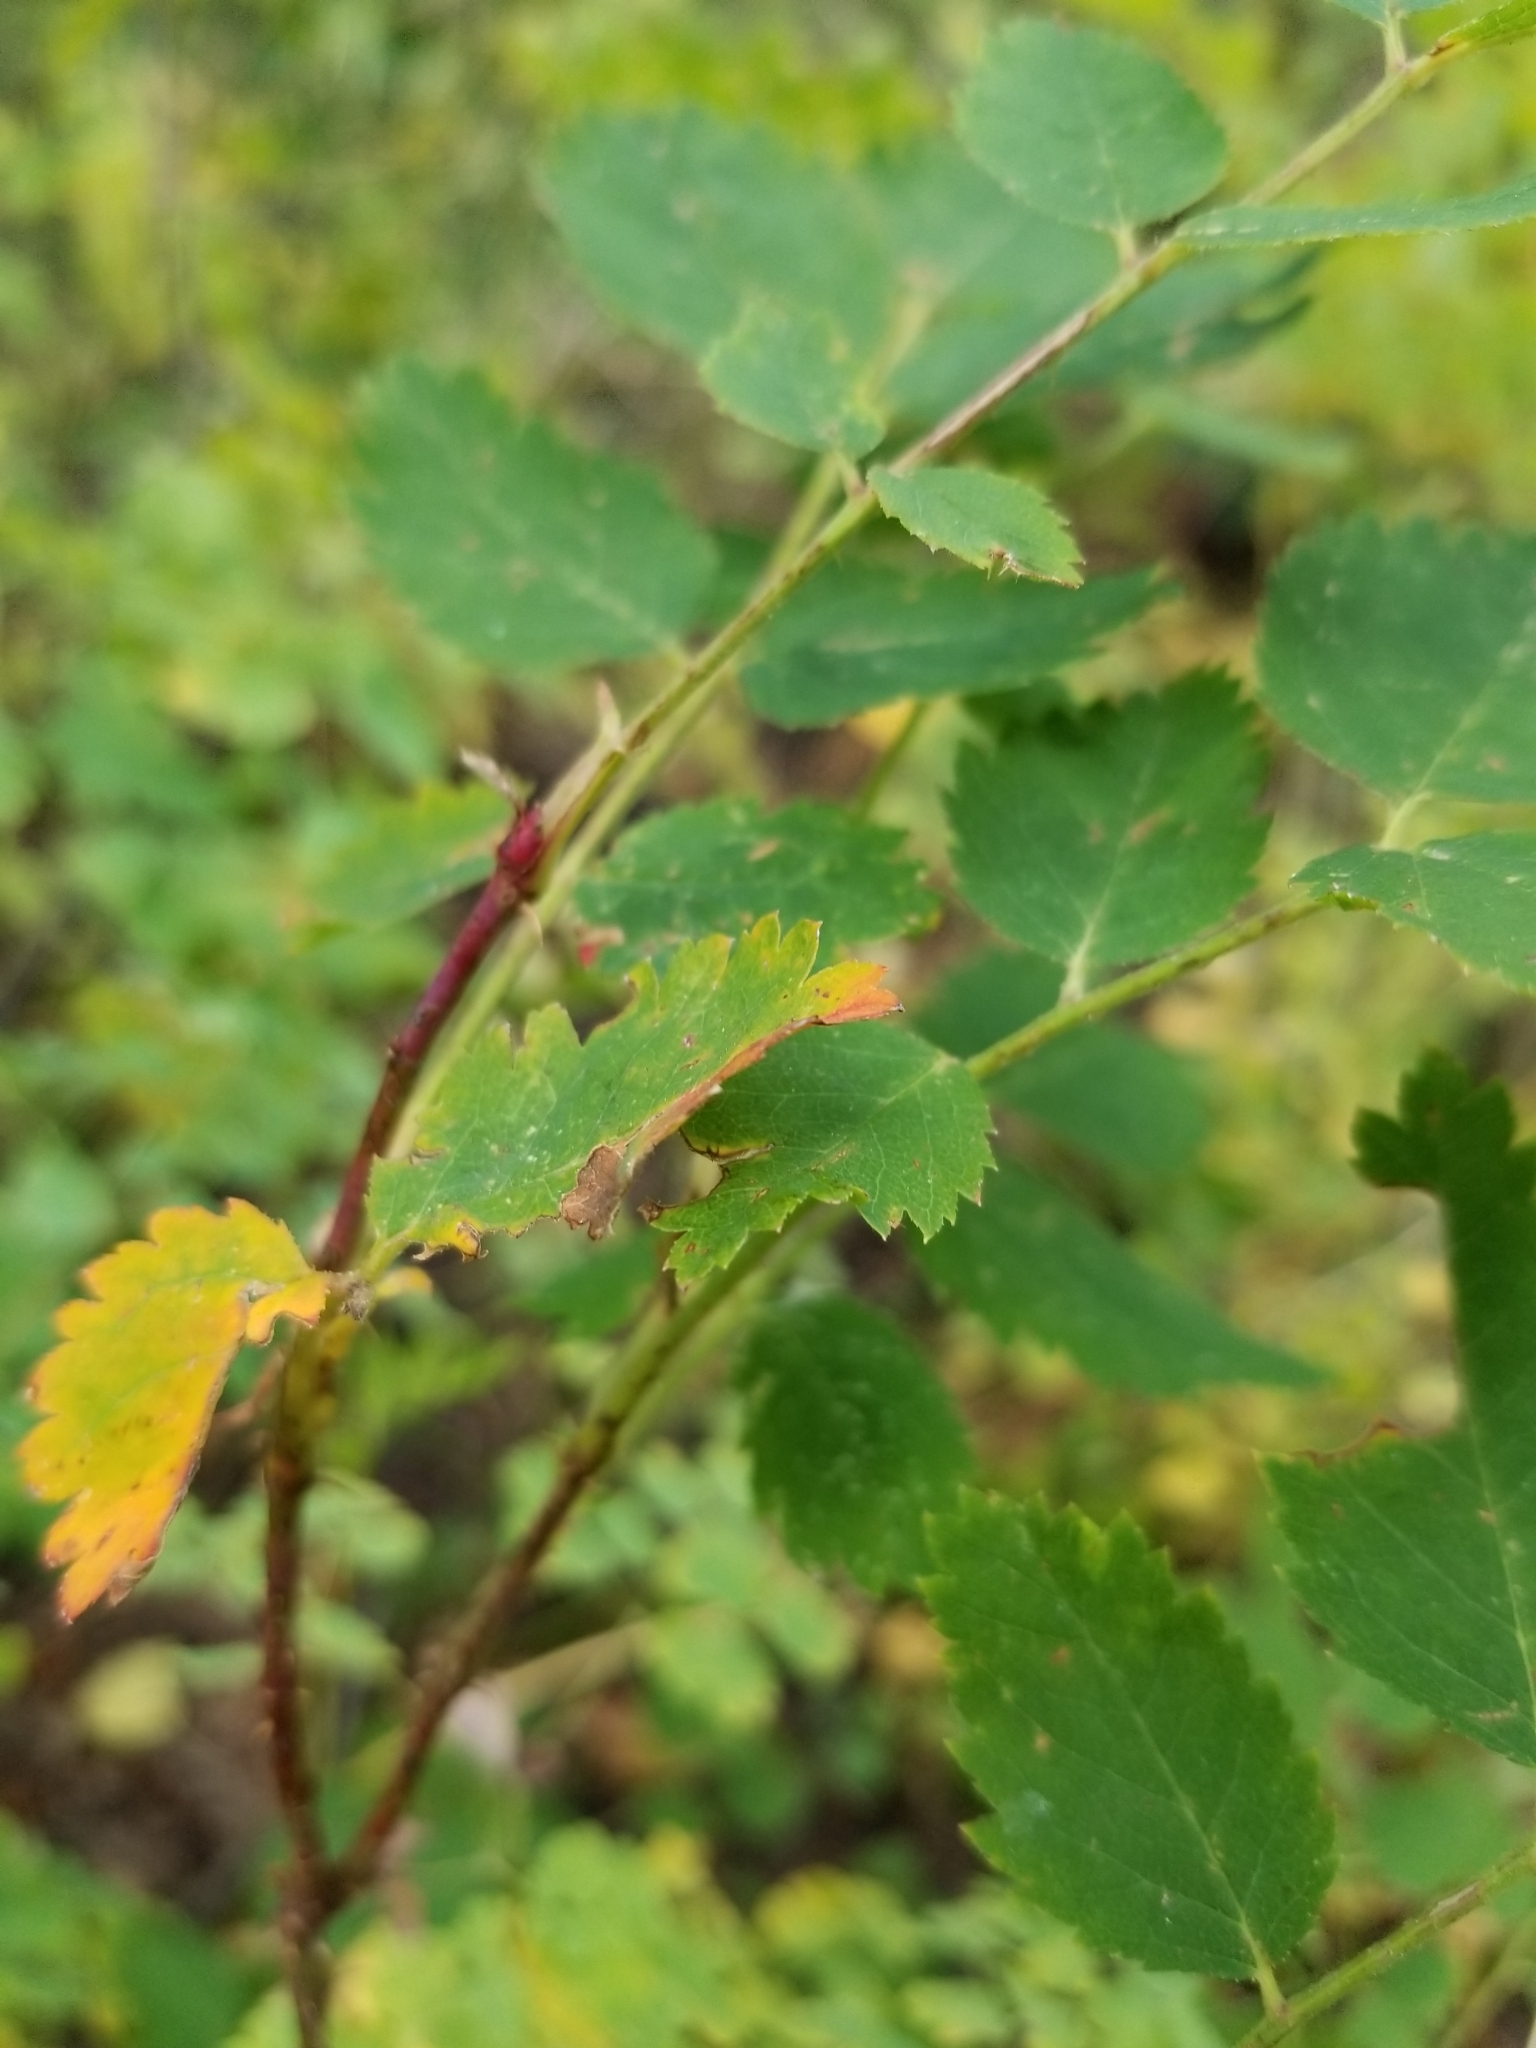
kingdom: Plantae
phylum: Tracheophyta
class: Magnoliopsida
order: Rosales
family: Rosaceae
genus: Rosa
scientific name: Rosa woodsii
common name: Woods's rose
